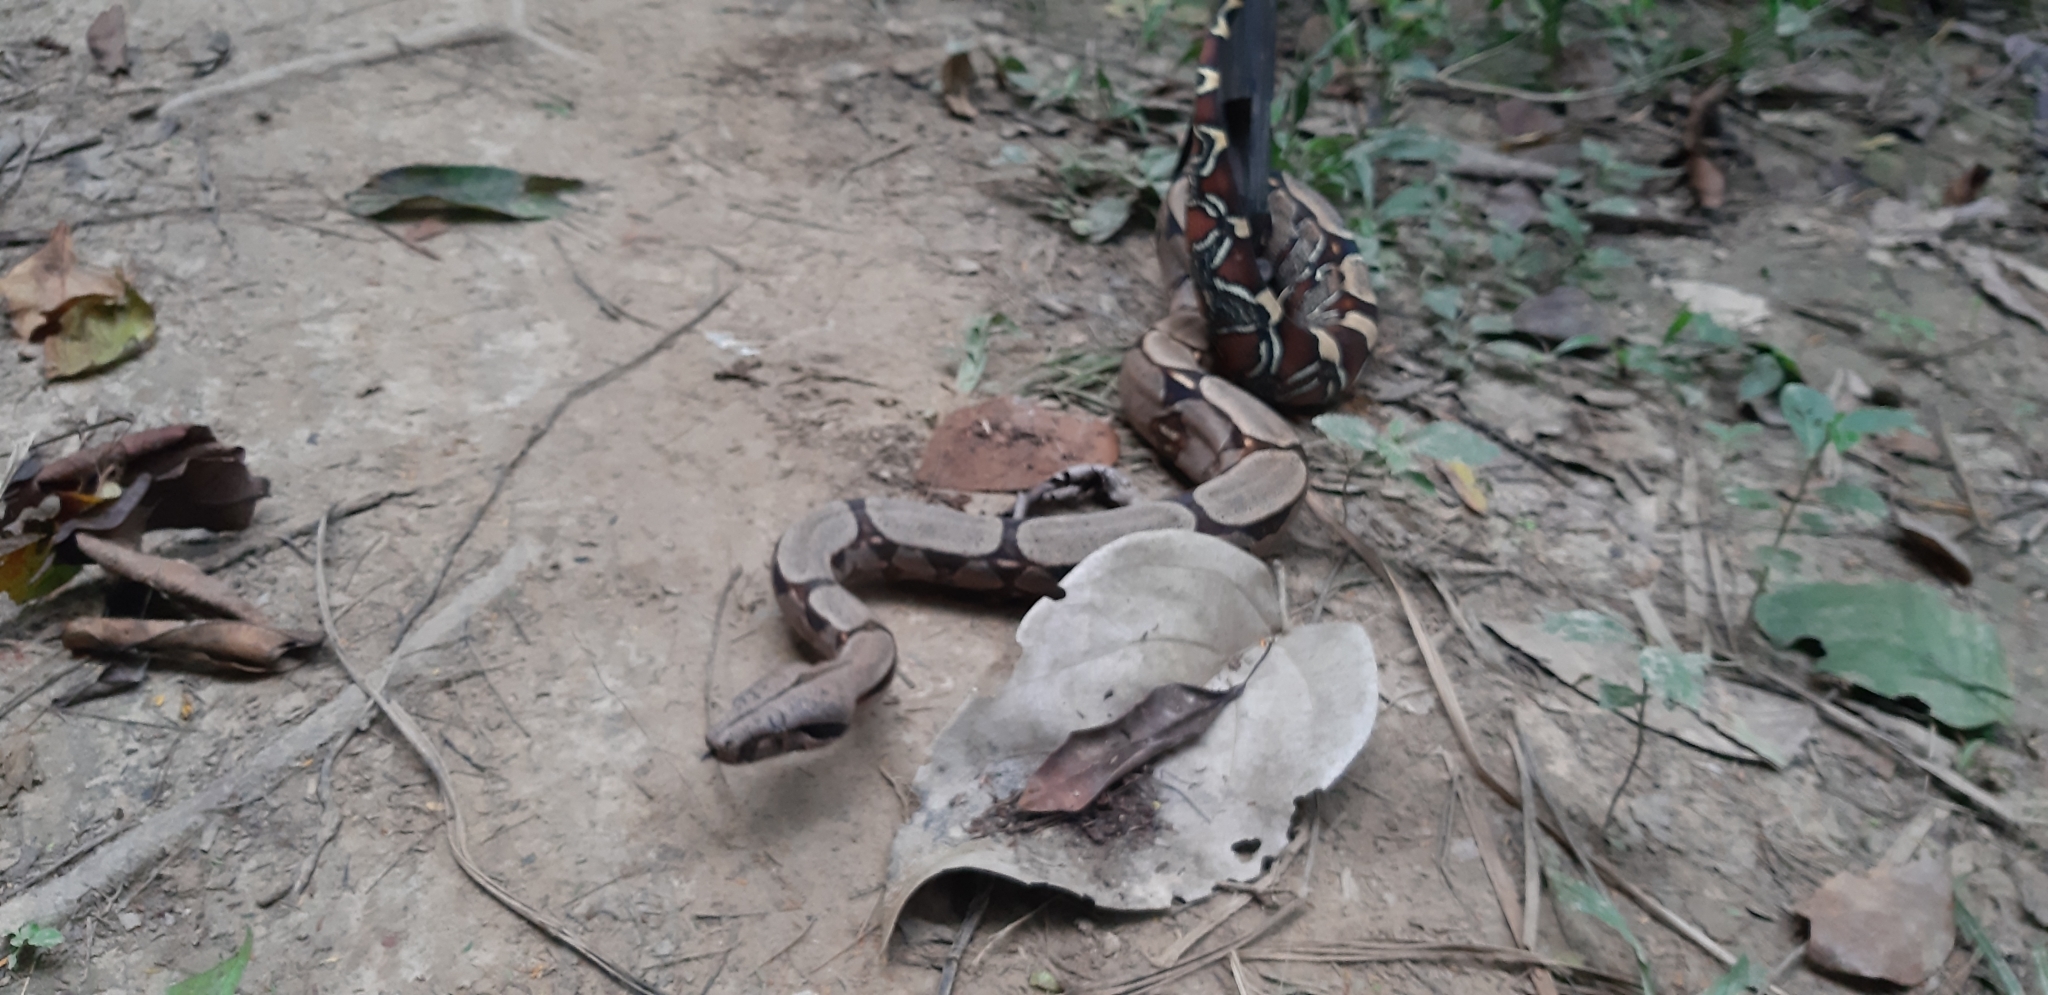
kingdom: Animalia
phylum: Chordata
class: Squamata
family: Boidae
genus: Boa
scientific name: Boa constrictor
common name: Boa constrictor
